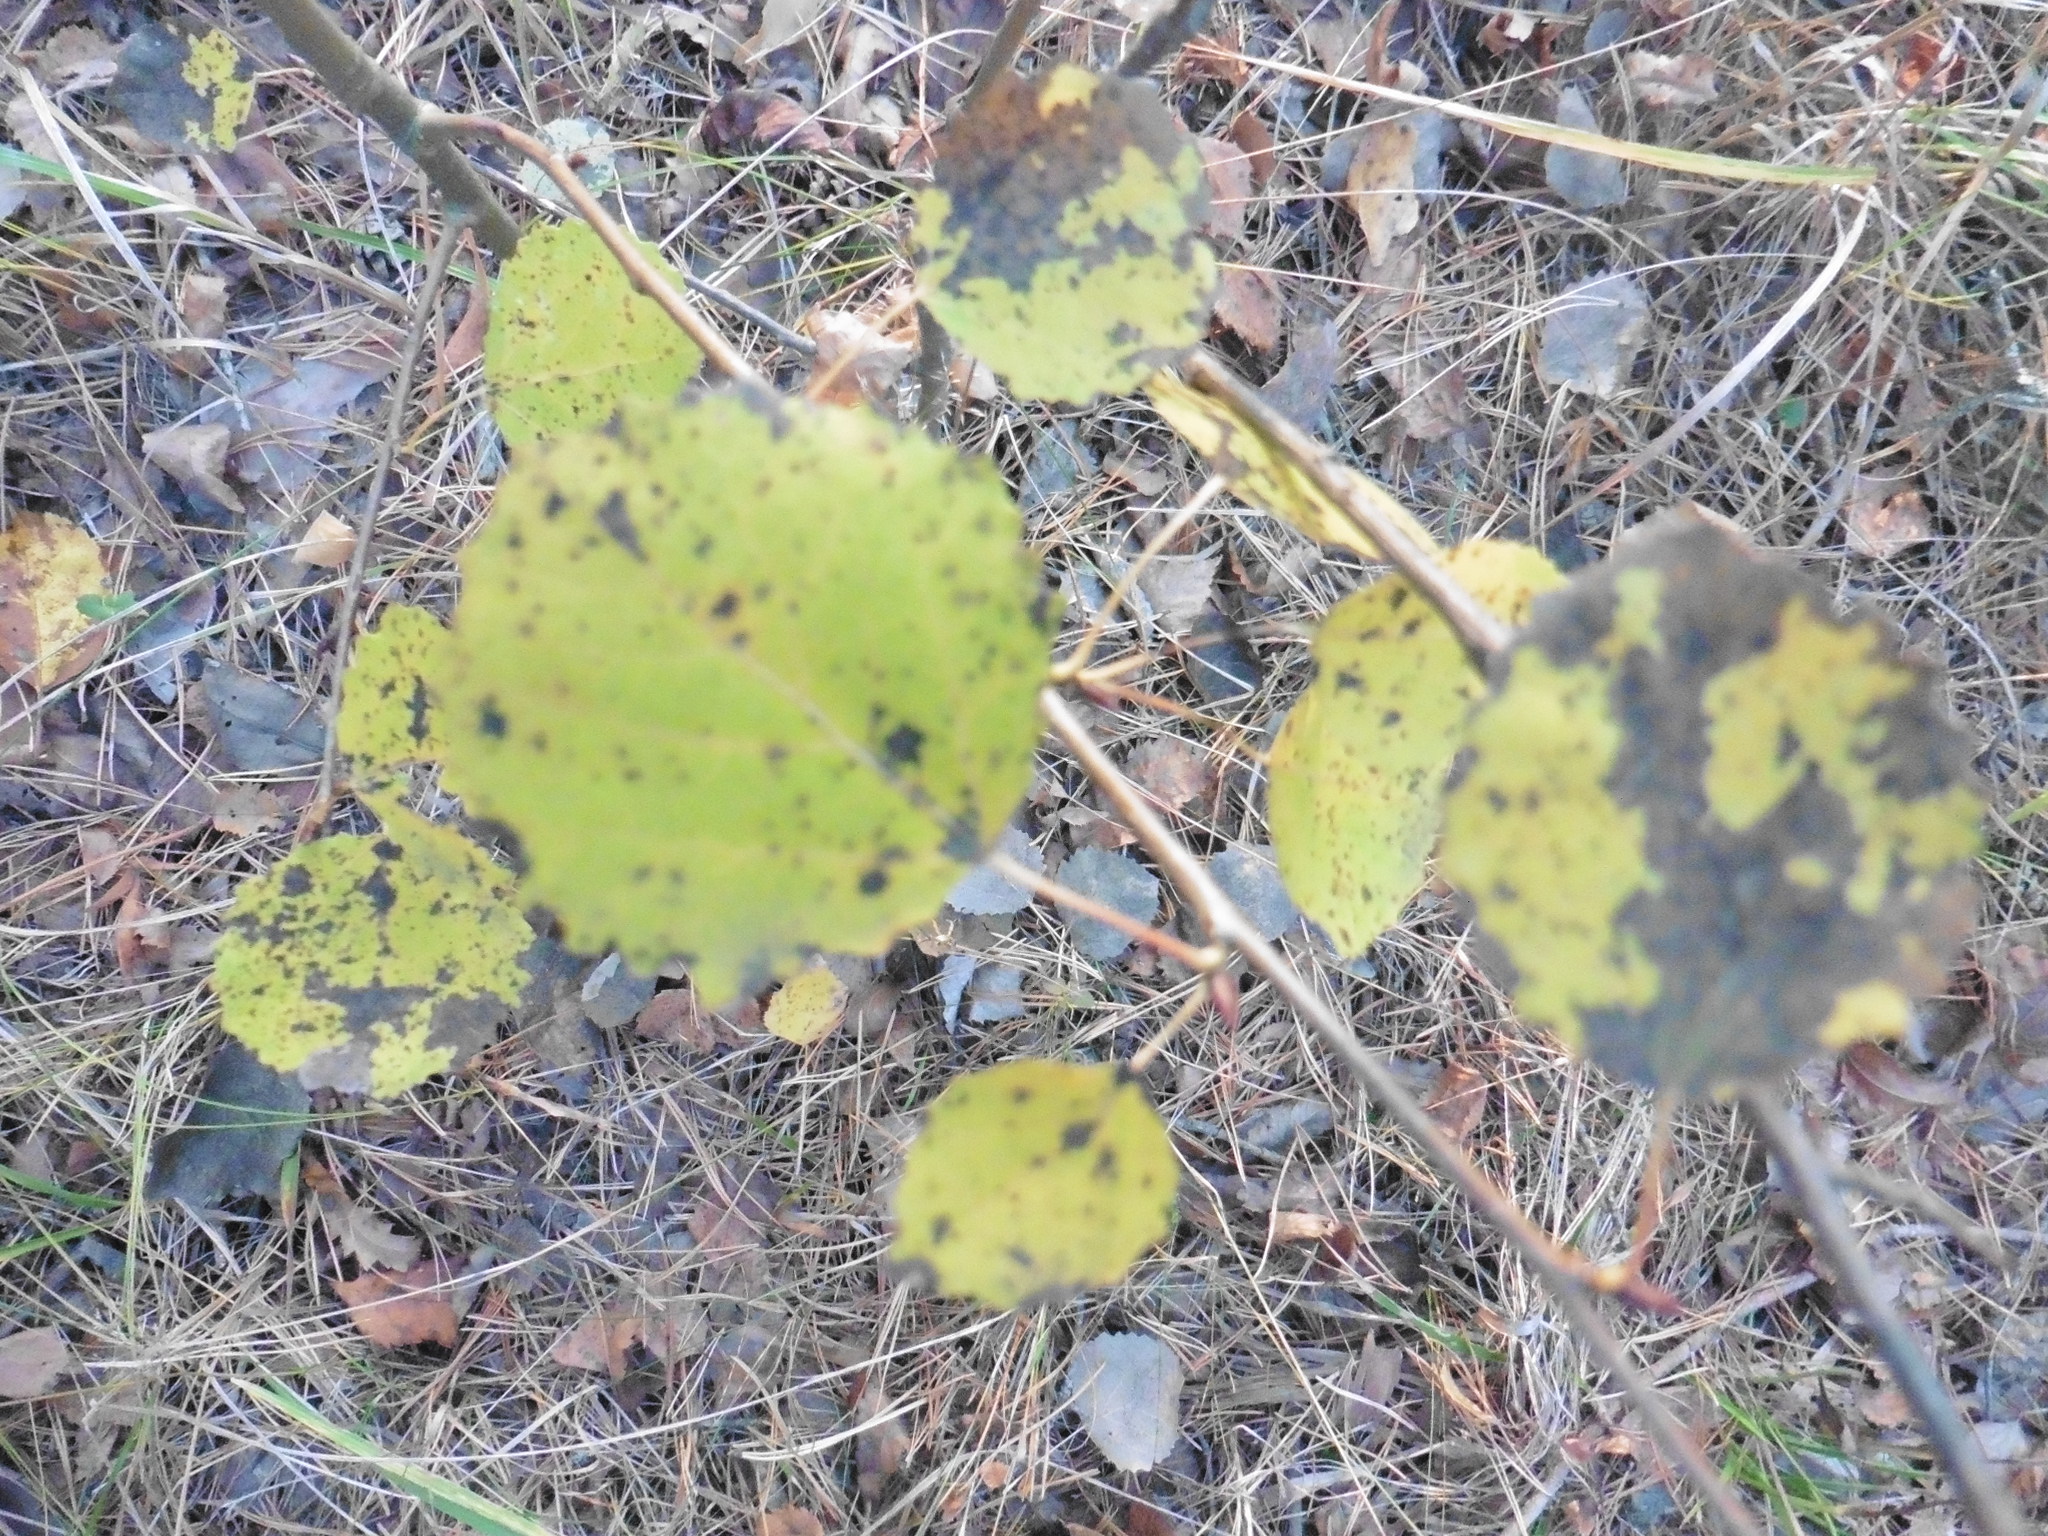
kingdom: Plantae
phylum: Tracheophyta
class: Magnoliopsida
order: Malpighiales
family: Salicaceae
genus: Populus
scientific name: Populus tremula
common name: European aspen
